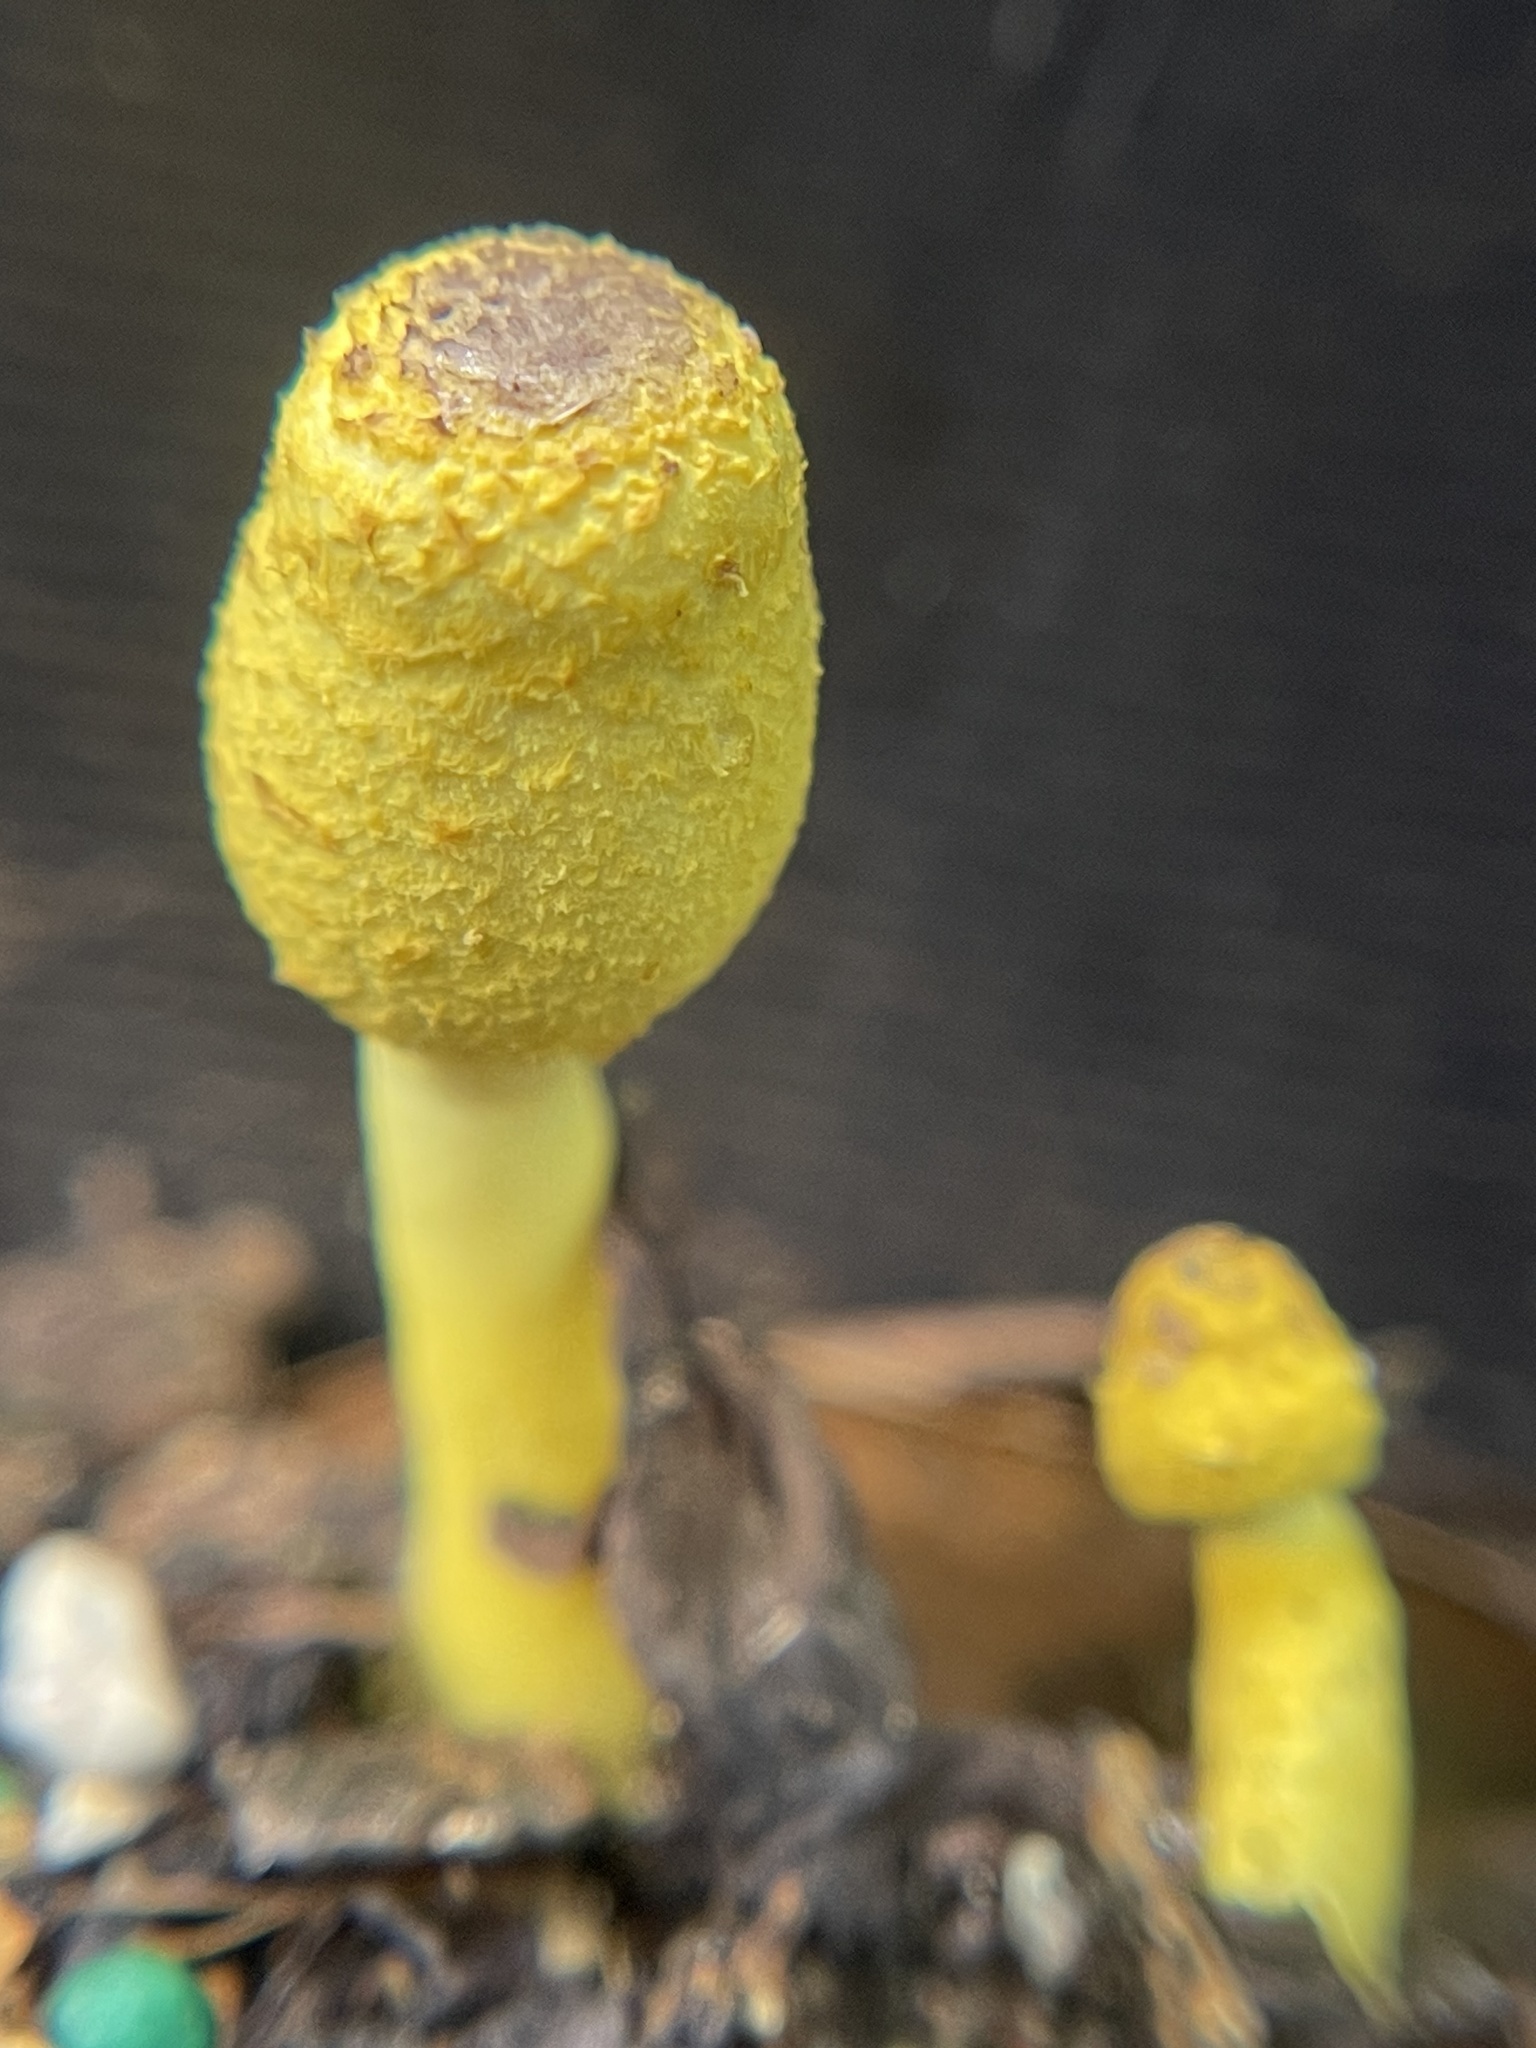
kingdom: Fungi
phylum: Basidiomycota
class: Agaricomycetes
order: Agaricales
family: Agaricaceae
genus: Leucocoprinus
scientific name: Leucocoprinus birnbaumii
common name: Plantpot dapperling
